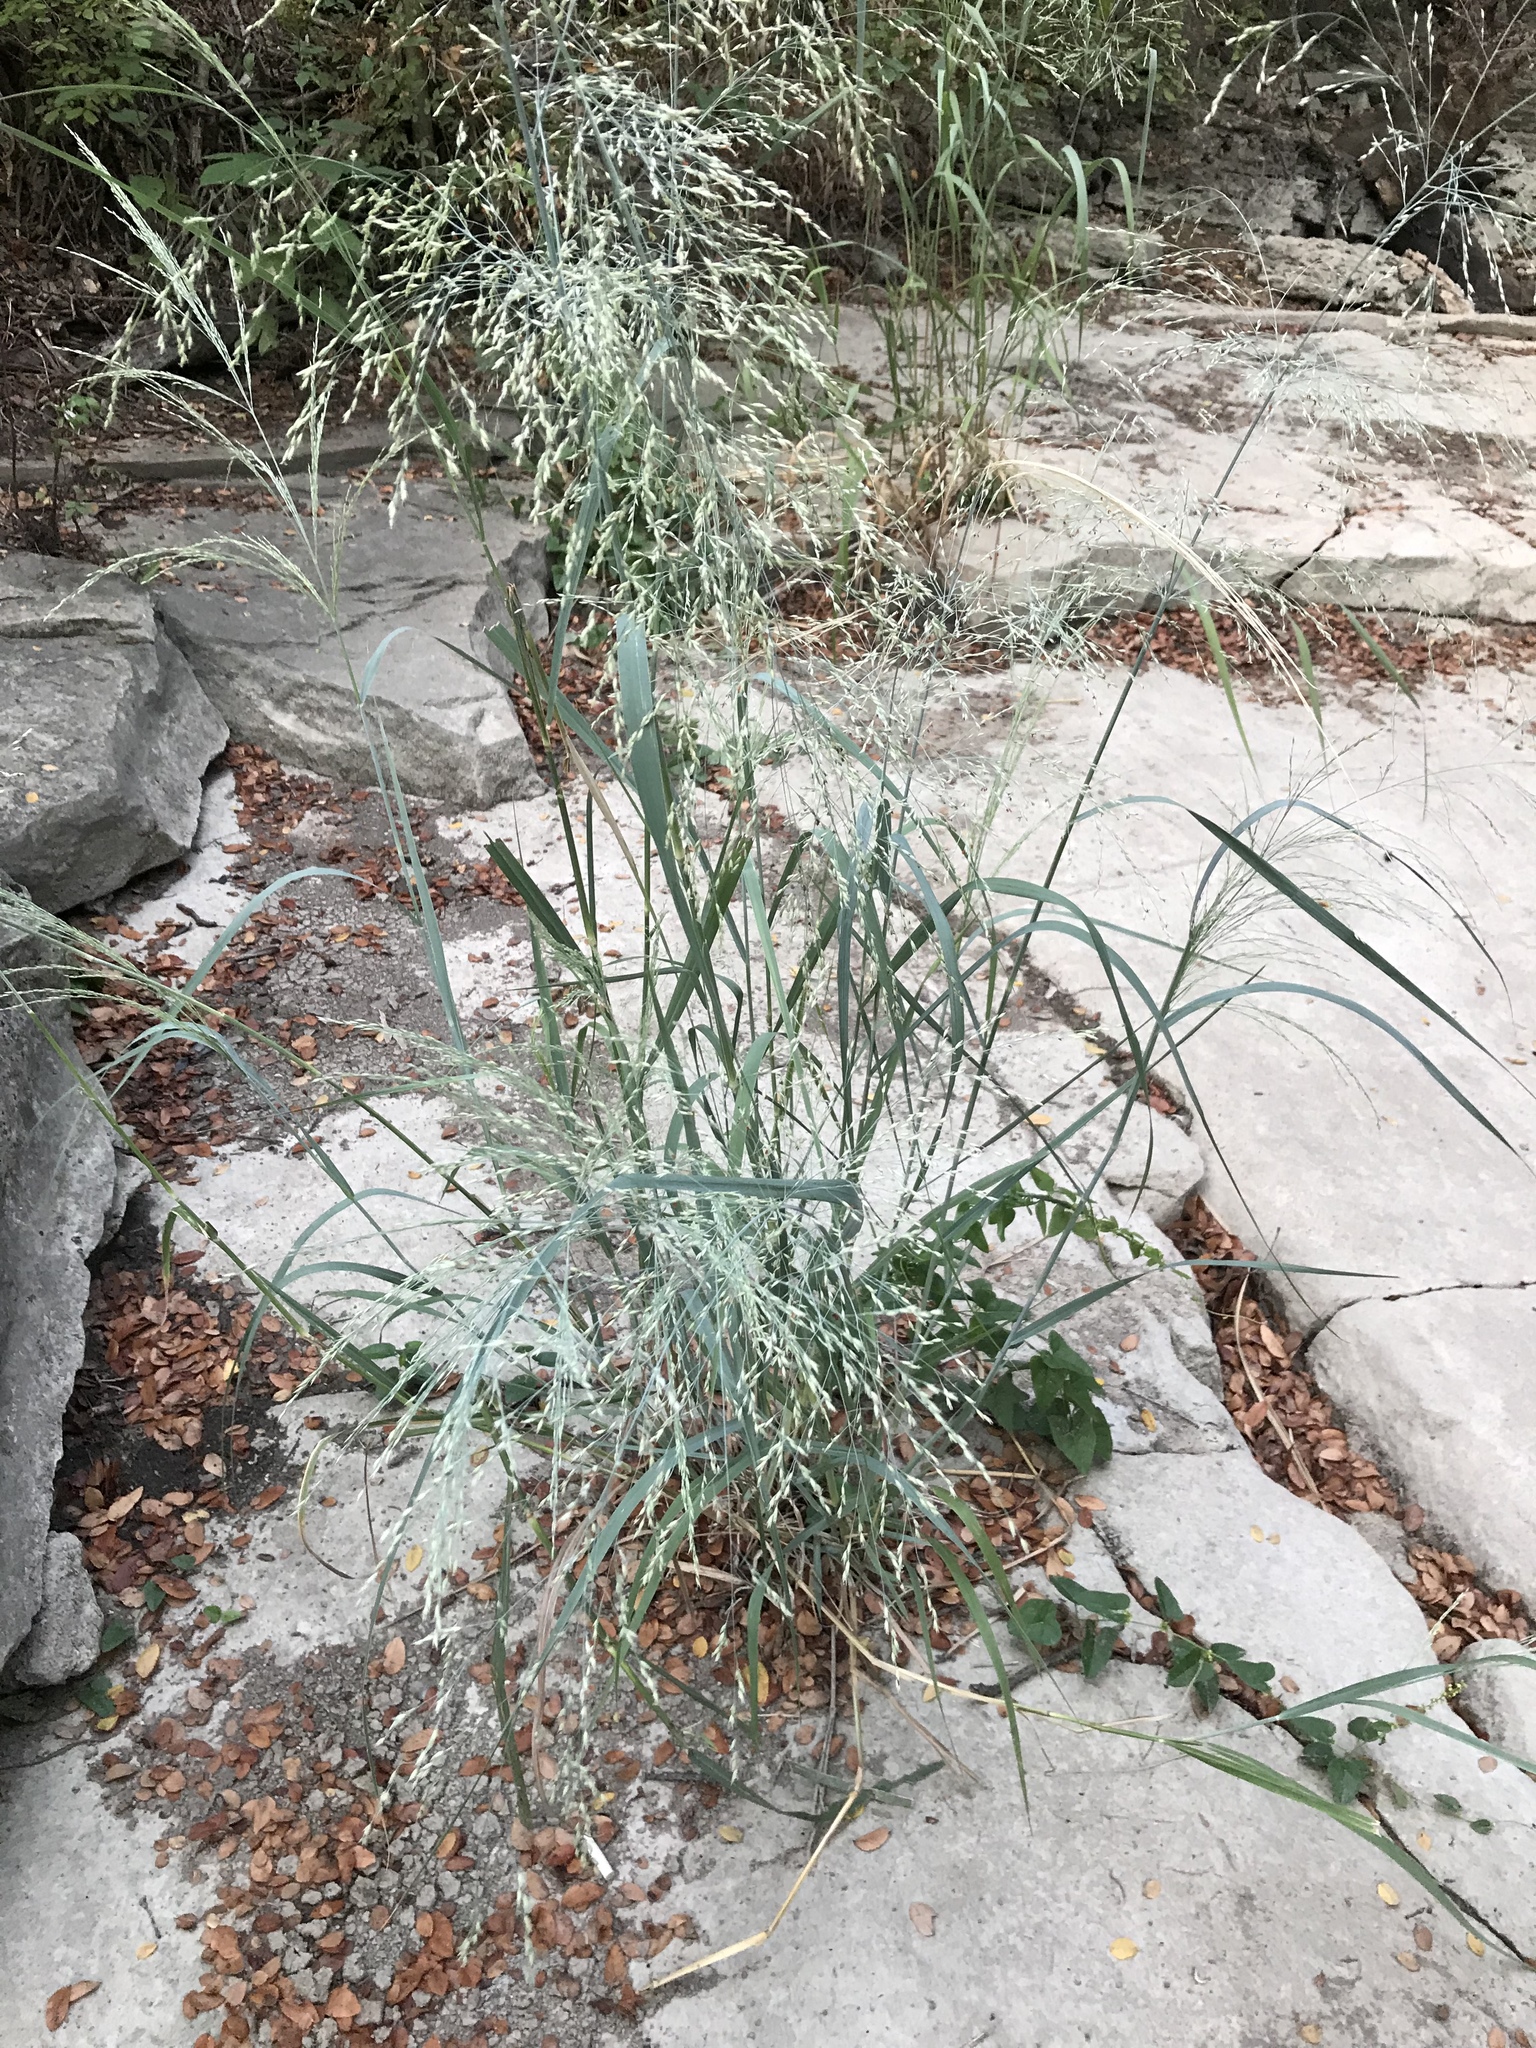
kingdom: Plantae
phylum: Tracheophyta
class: Liliopsida
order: Poales
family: Poaceae
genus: Panicum
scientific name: Panicum virgatum
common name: Switchgrass
